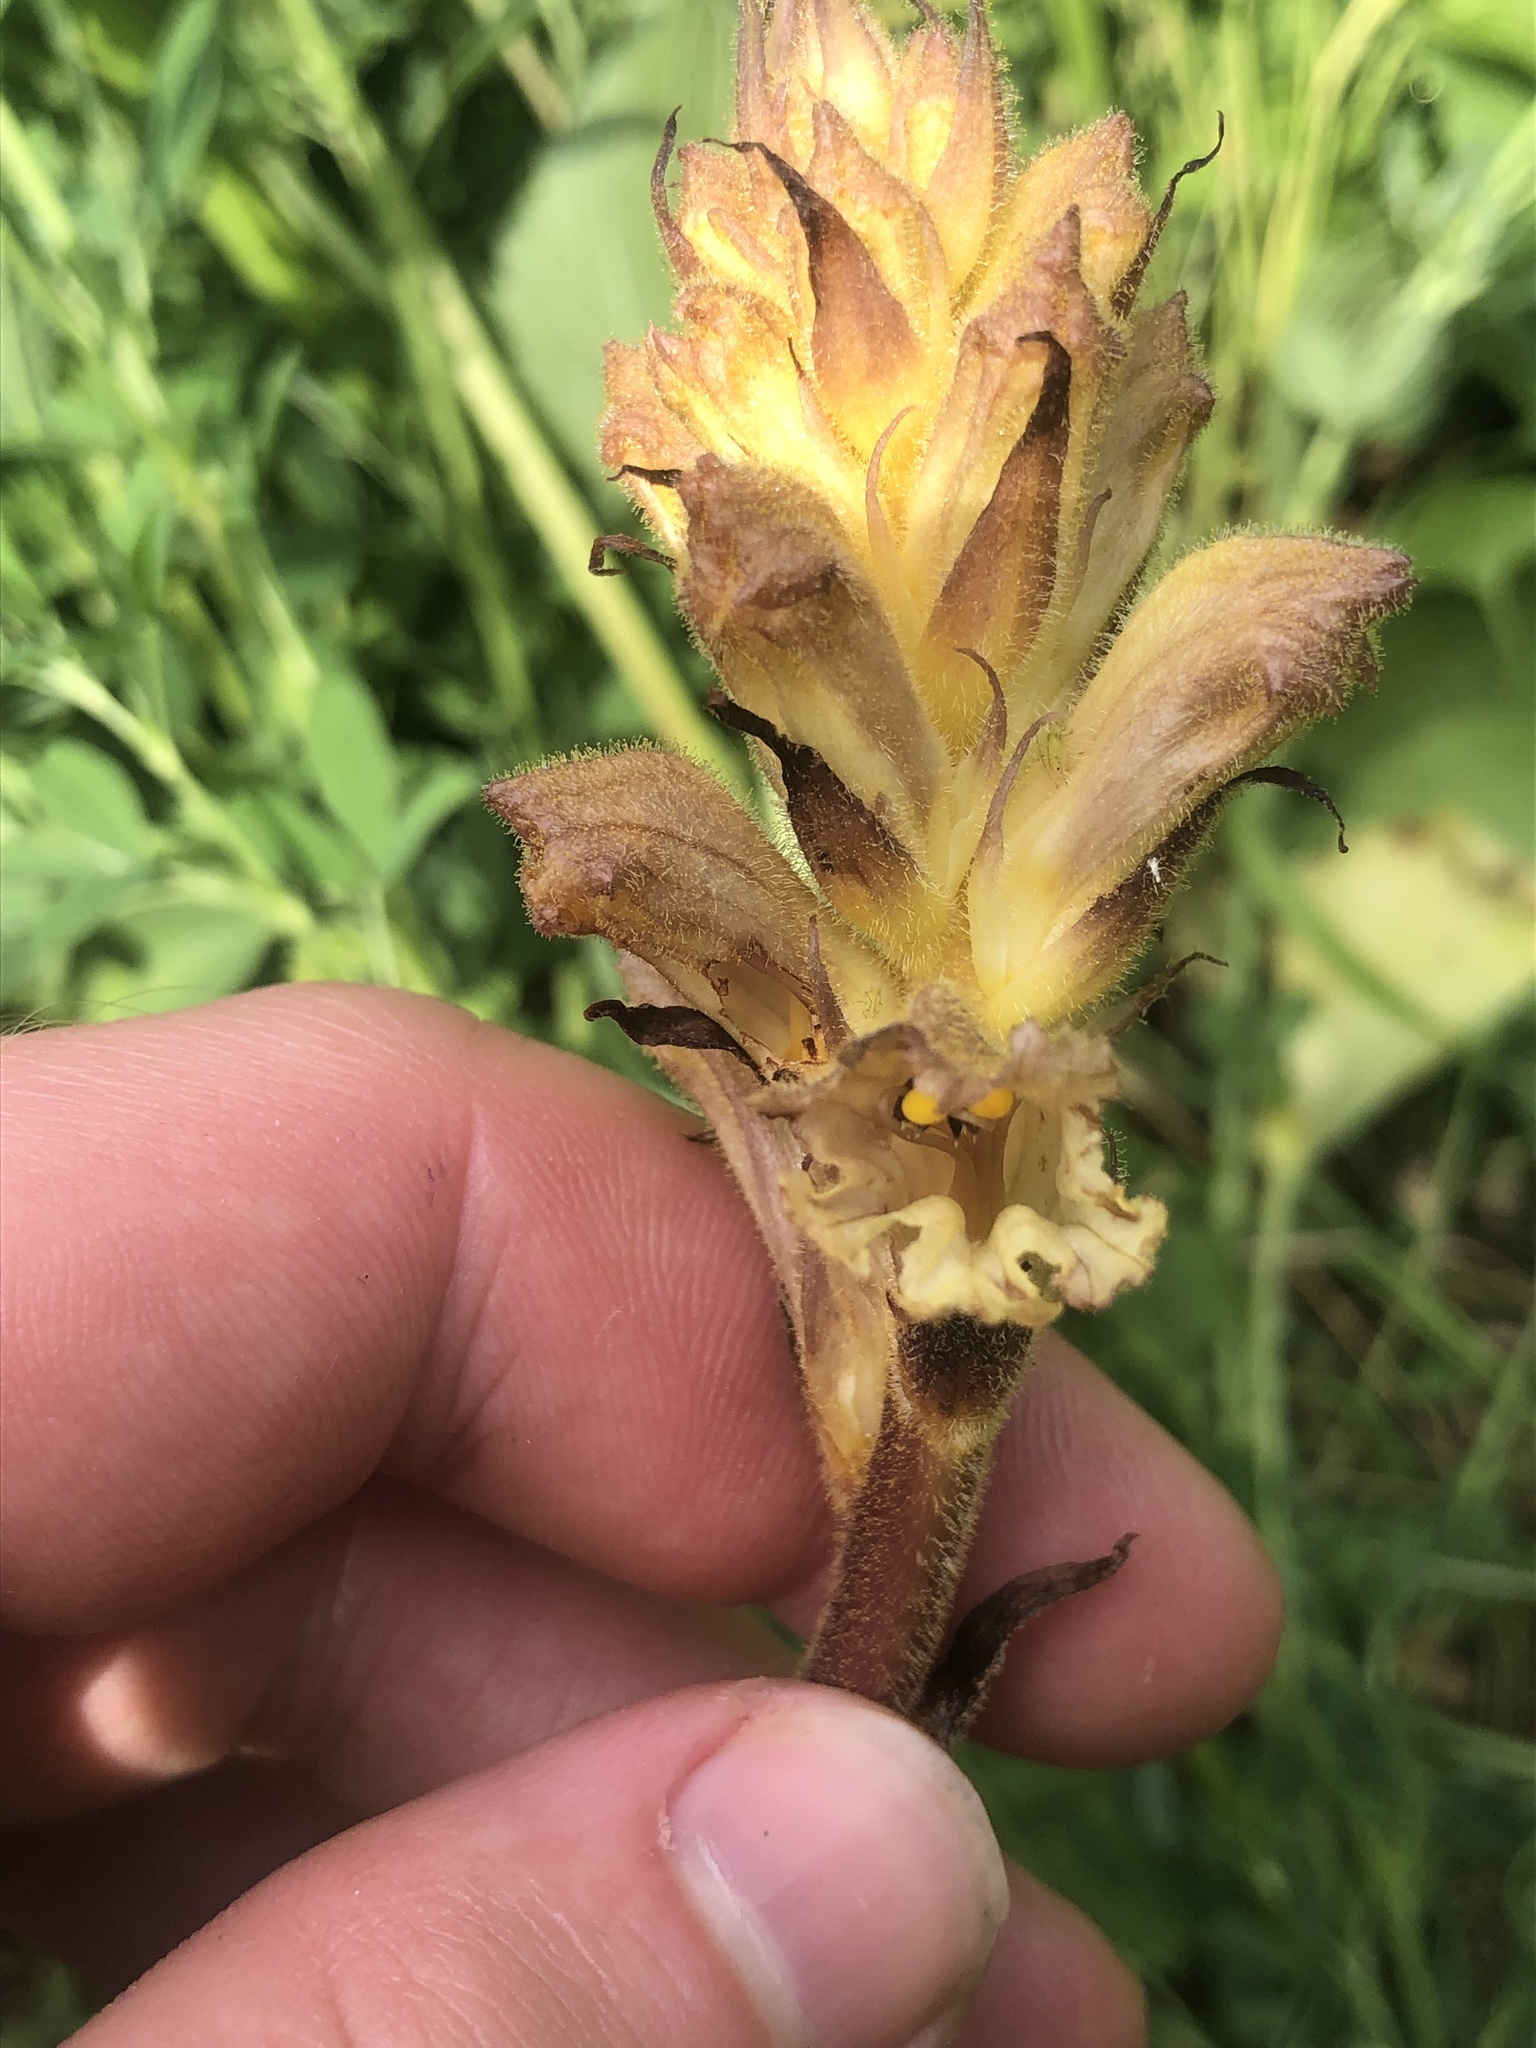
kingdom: Plantae
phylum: Tracheophyta
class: Magnoliopsida
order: Lamiales
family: Orobanchaceae
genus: Orobanche
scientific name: Orobanche lutea
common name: Yellow broomrape
